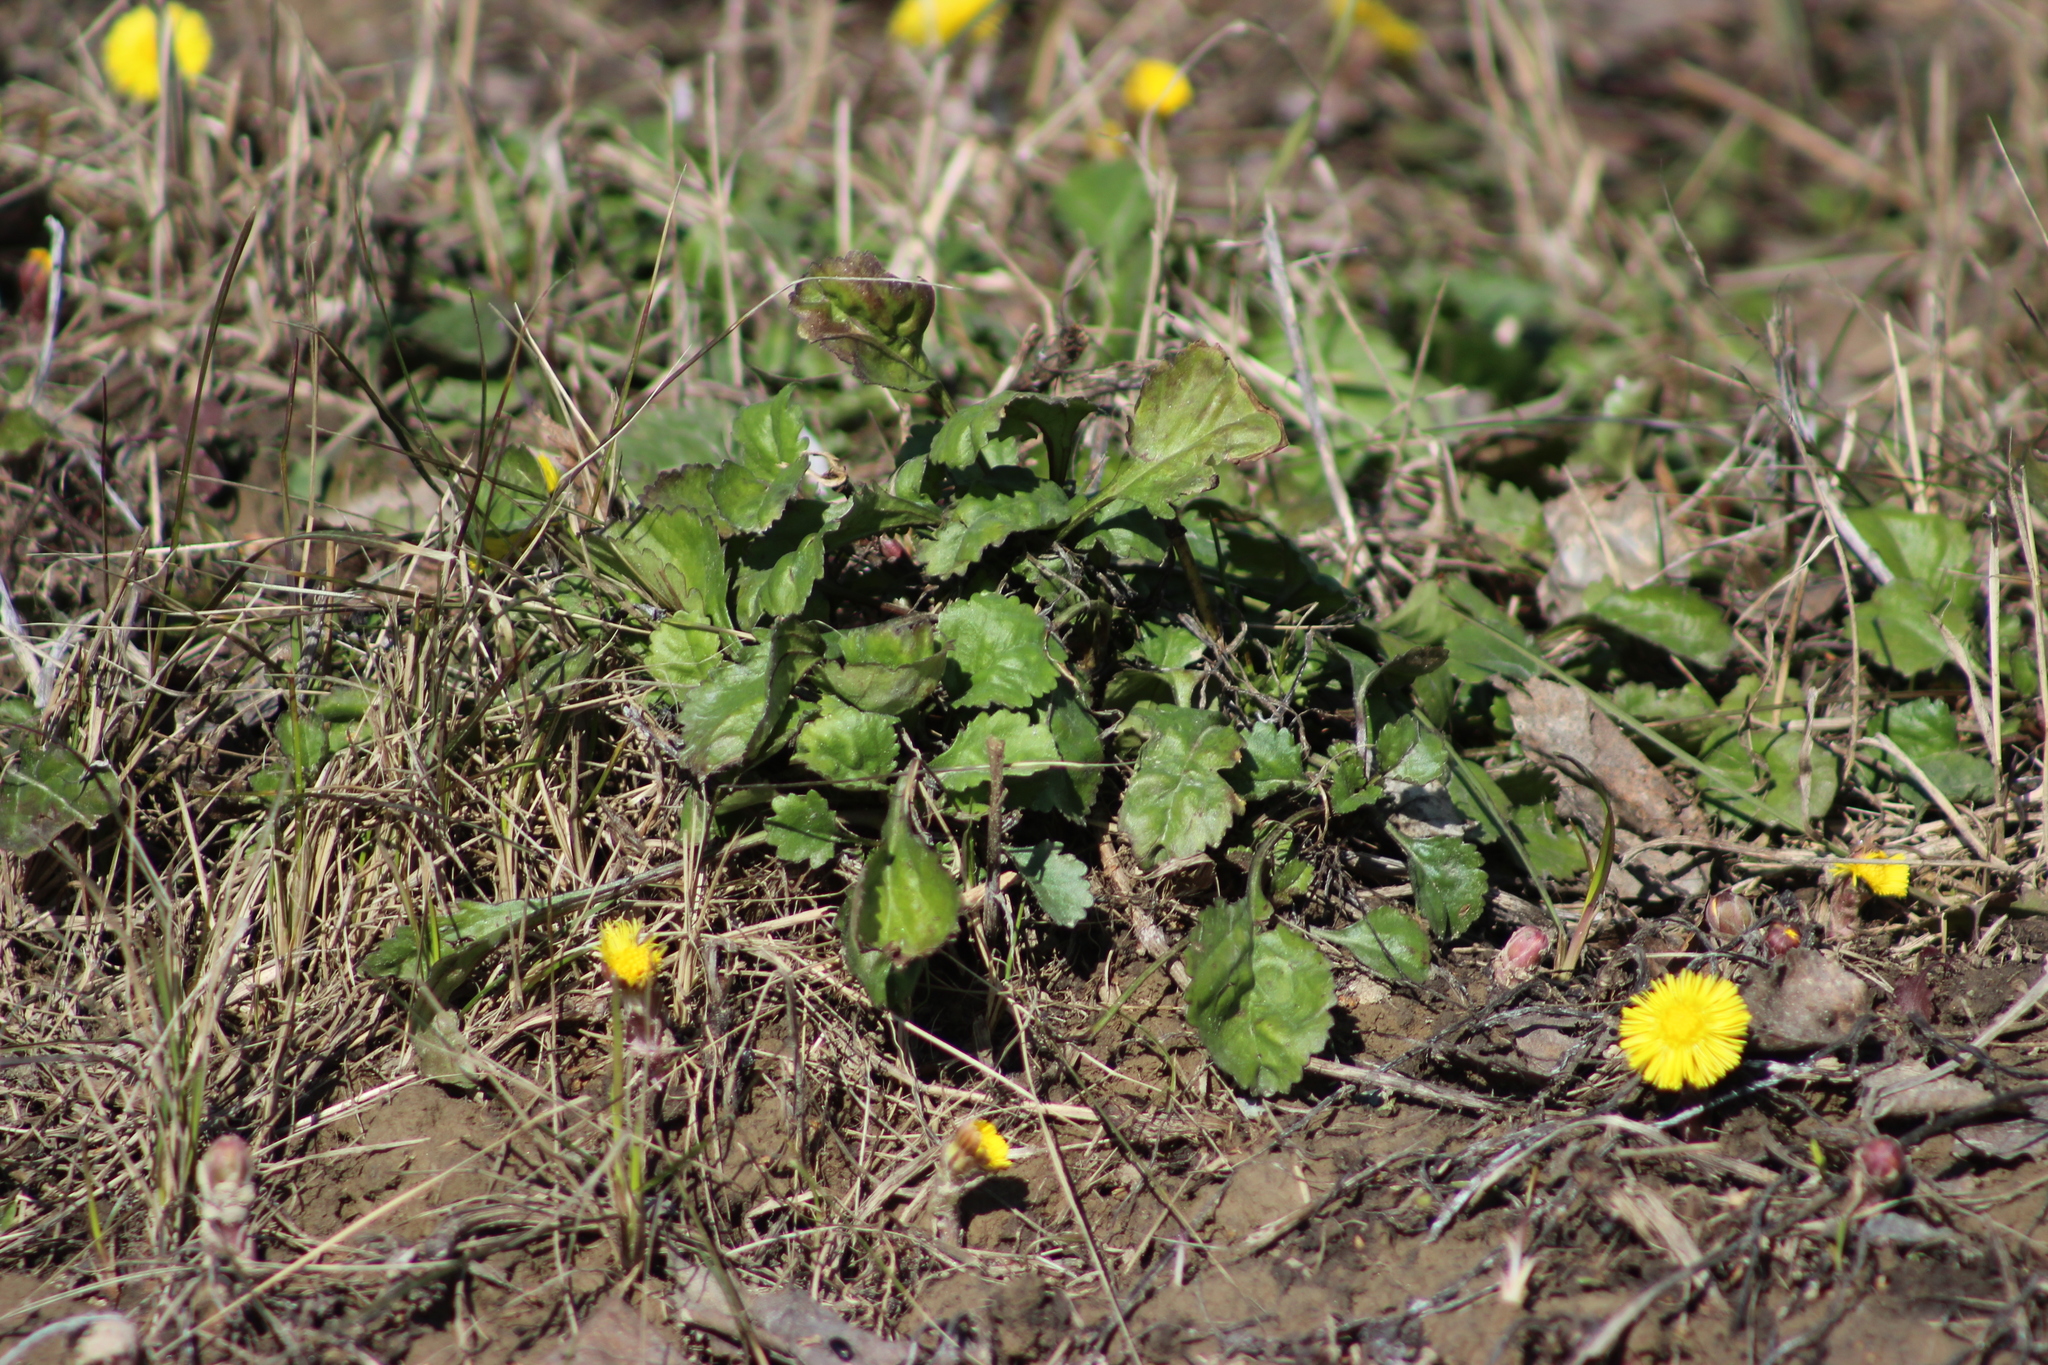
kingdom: Plantae
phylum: Tracheophyta
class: Magnoliopsida
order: Asterales
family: Asteraceae
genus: Leucanthemum
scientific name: Leucanthemum ircutianum
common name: Daisy
